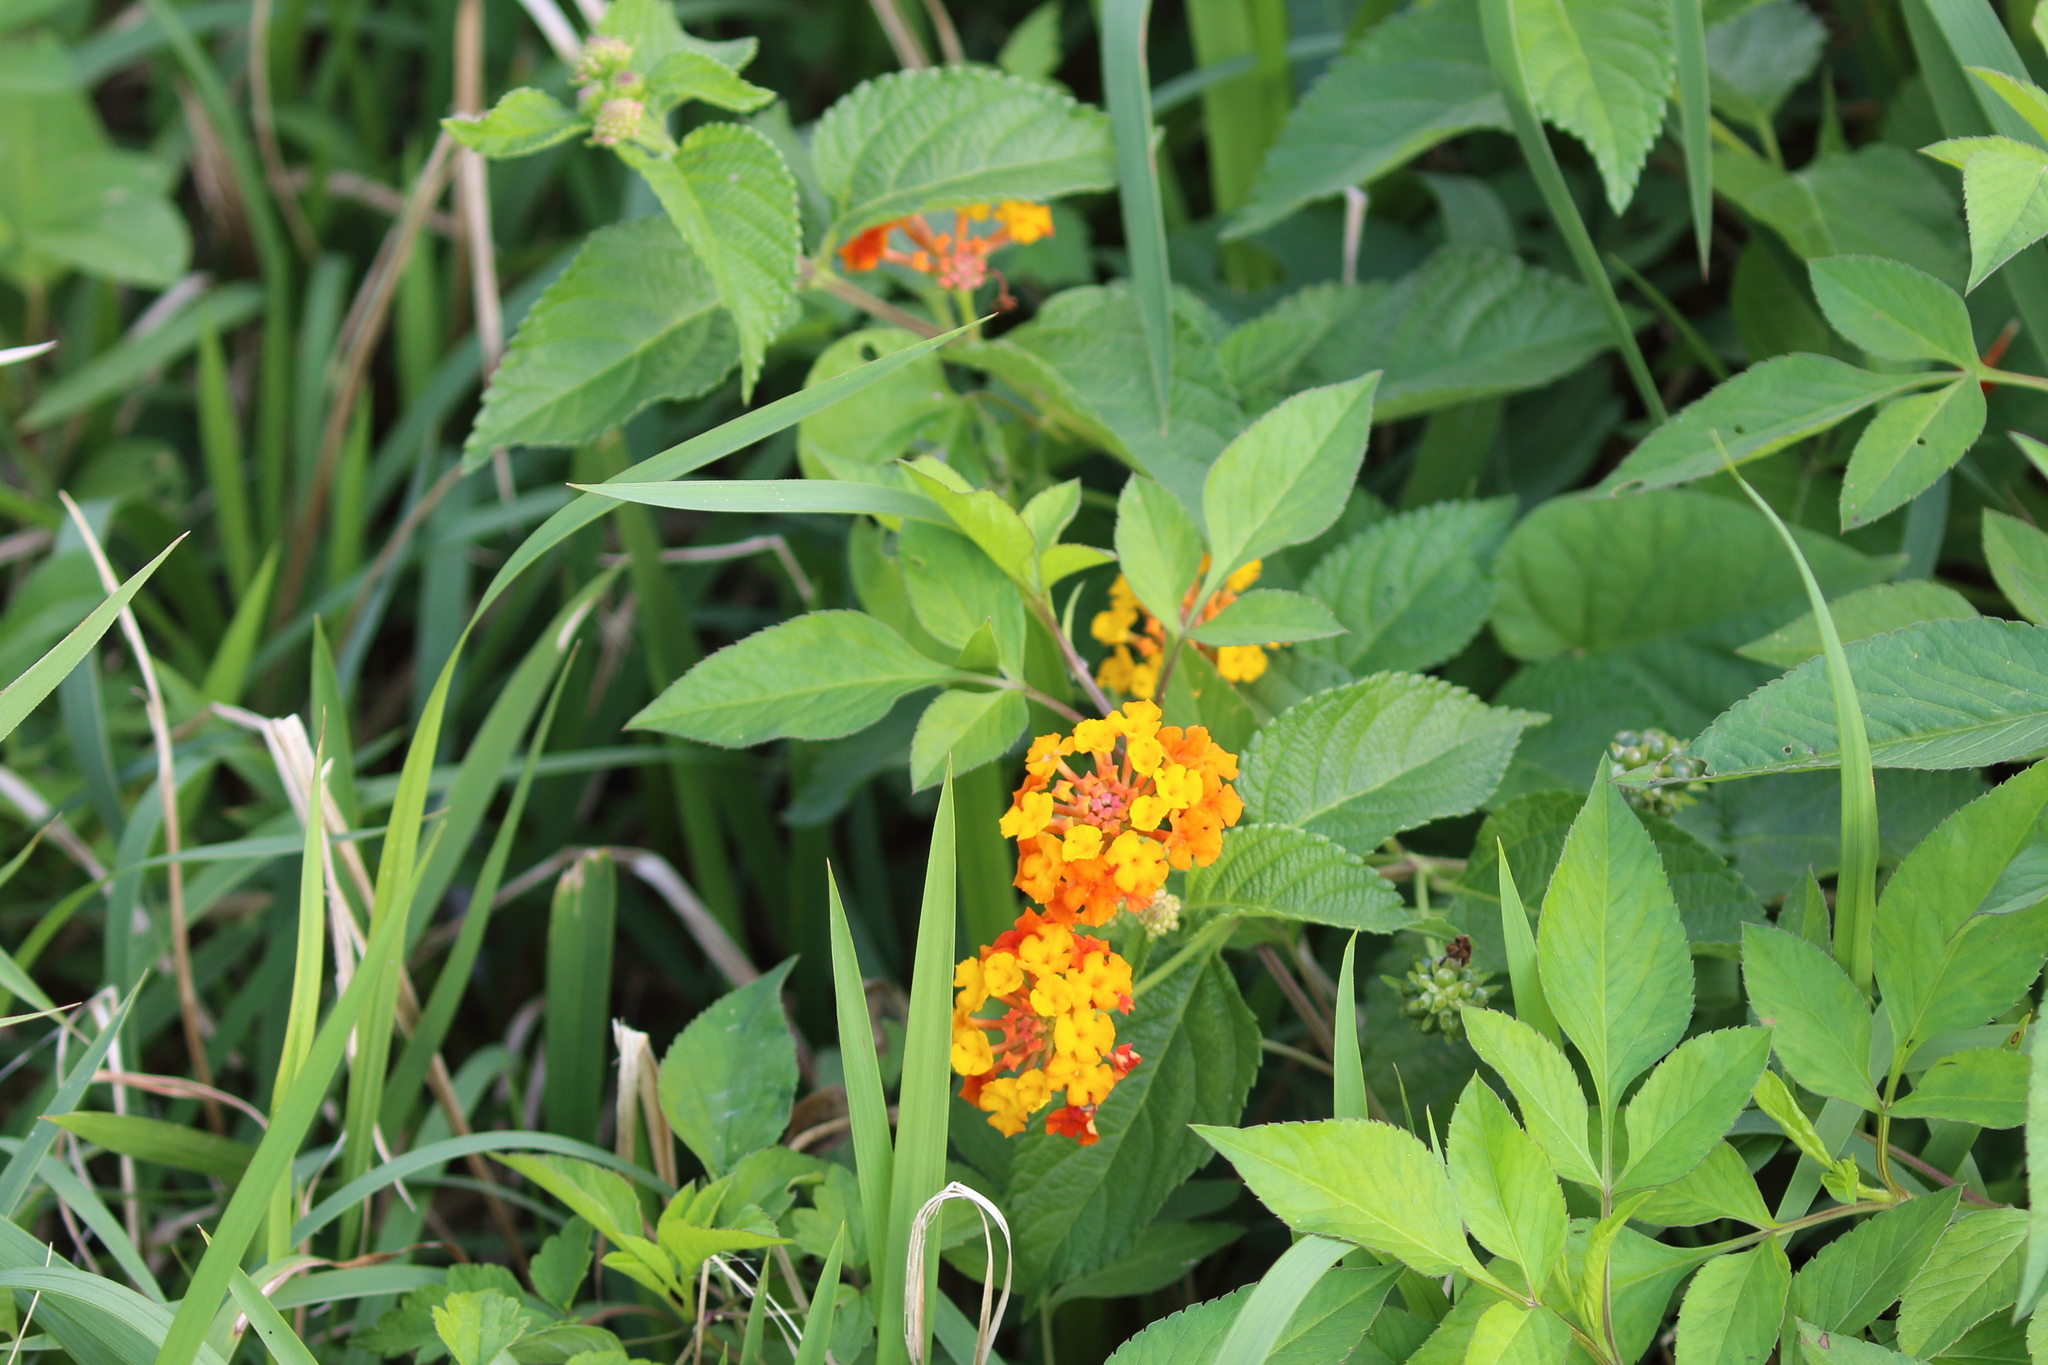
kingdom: Plantae
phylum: Tracheophyta
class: Magnoliopsida
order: Lamiales
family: Verbenaceae
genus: Lantana
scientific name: Lantana camara
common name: Lantana
